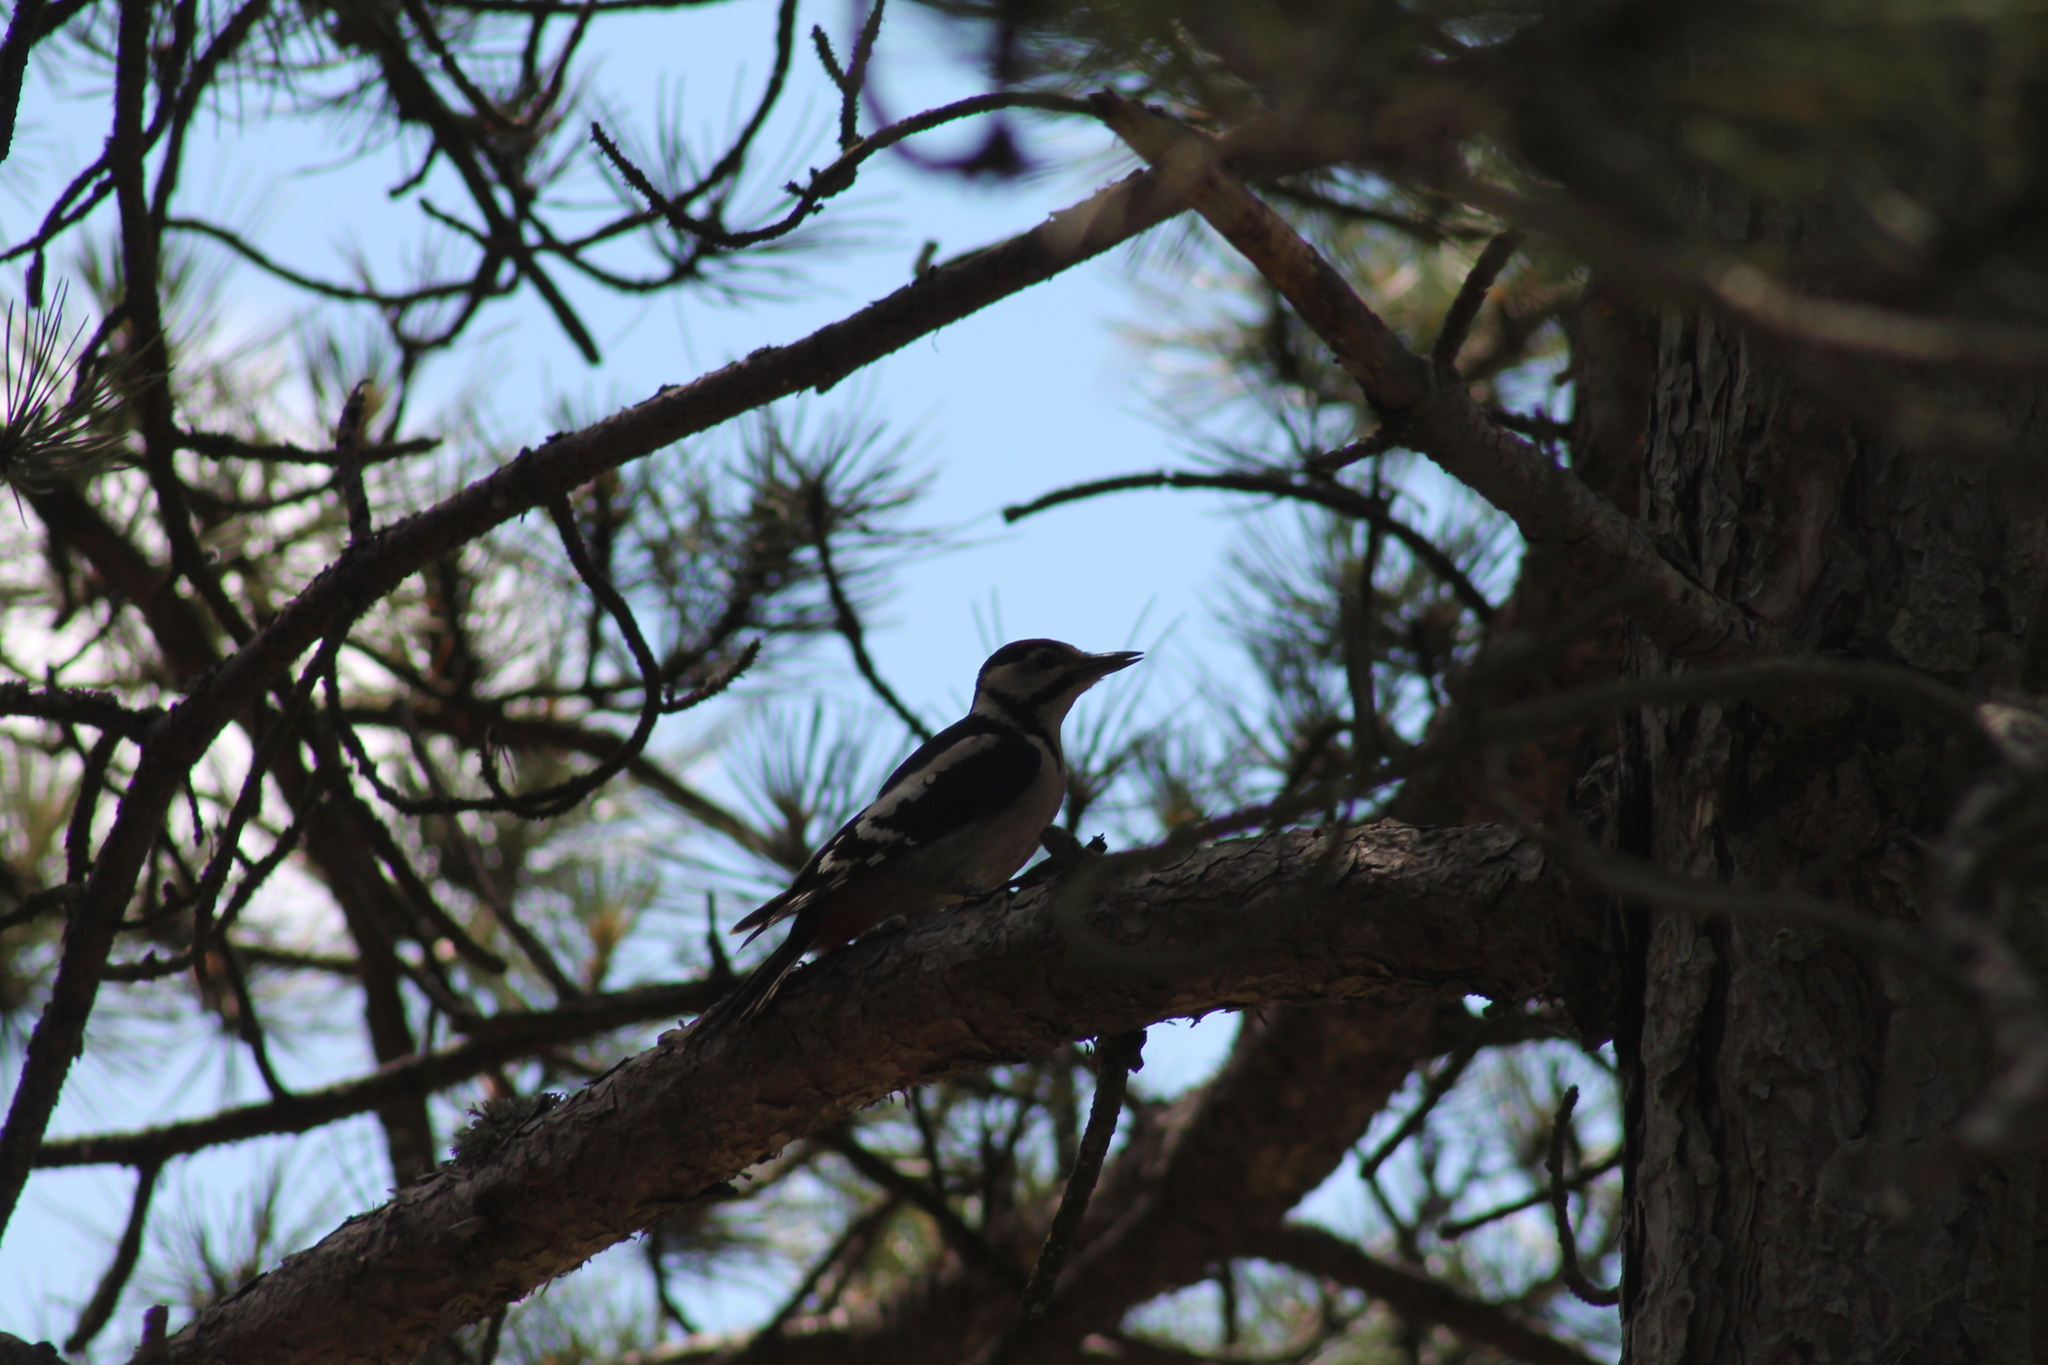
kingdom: Animalia
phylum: Chordata
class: Aves
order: Piciformes
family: Picidae
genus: Dendrocopos
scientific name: Dendrocopos major
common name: Great spotted woodpecker
